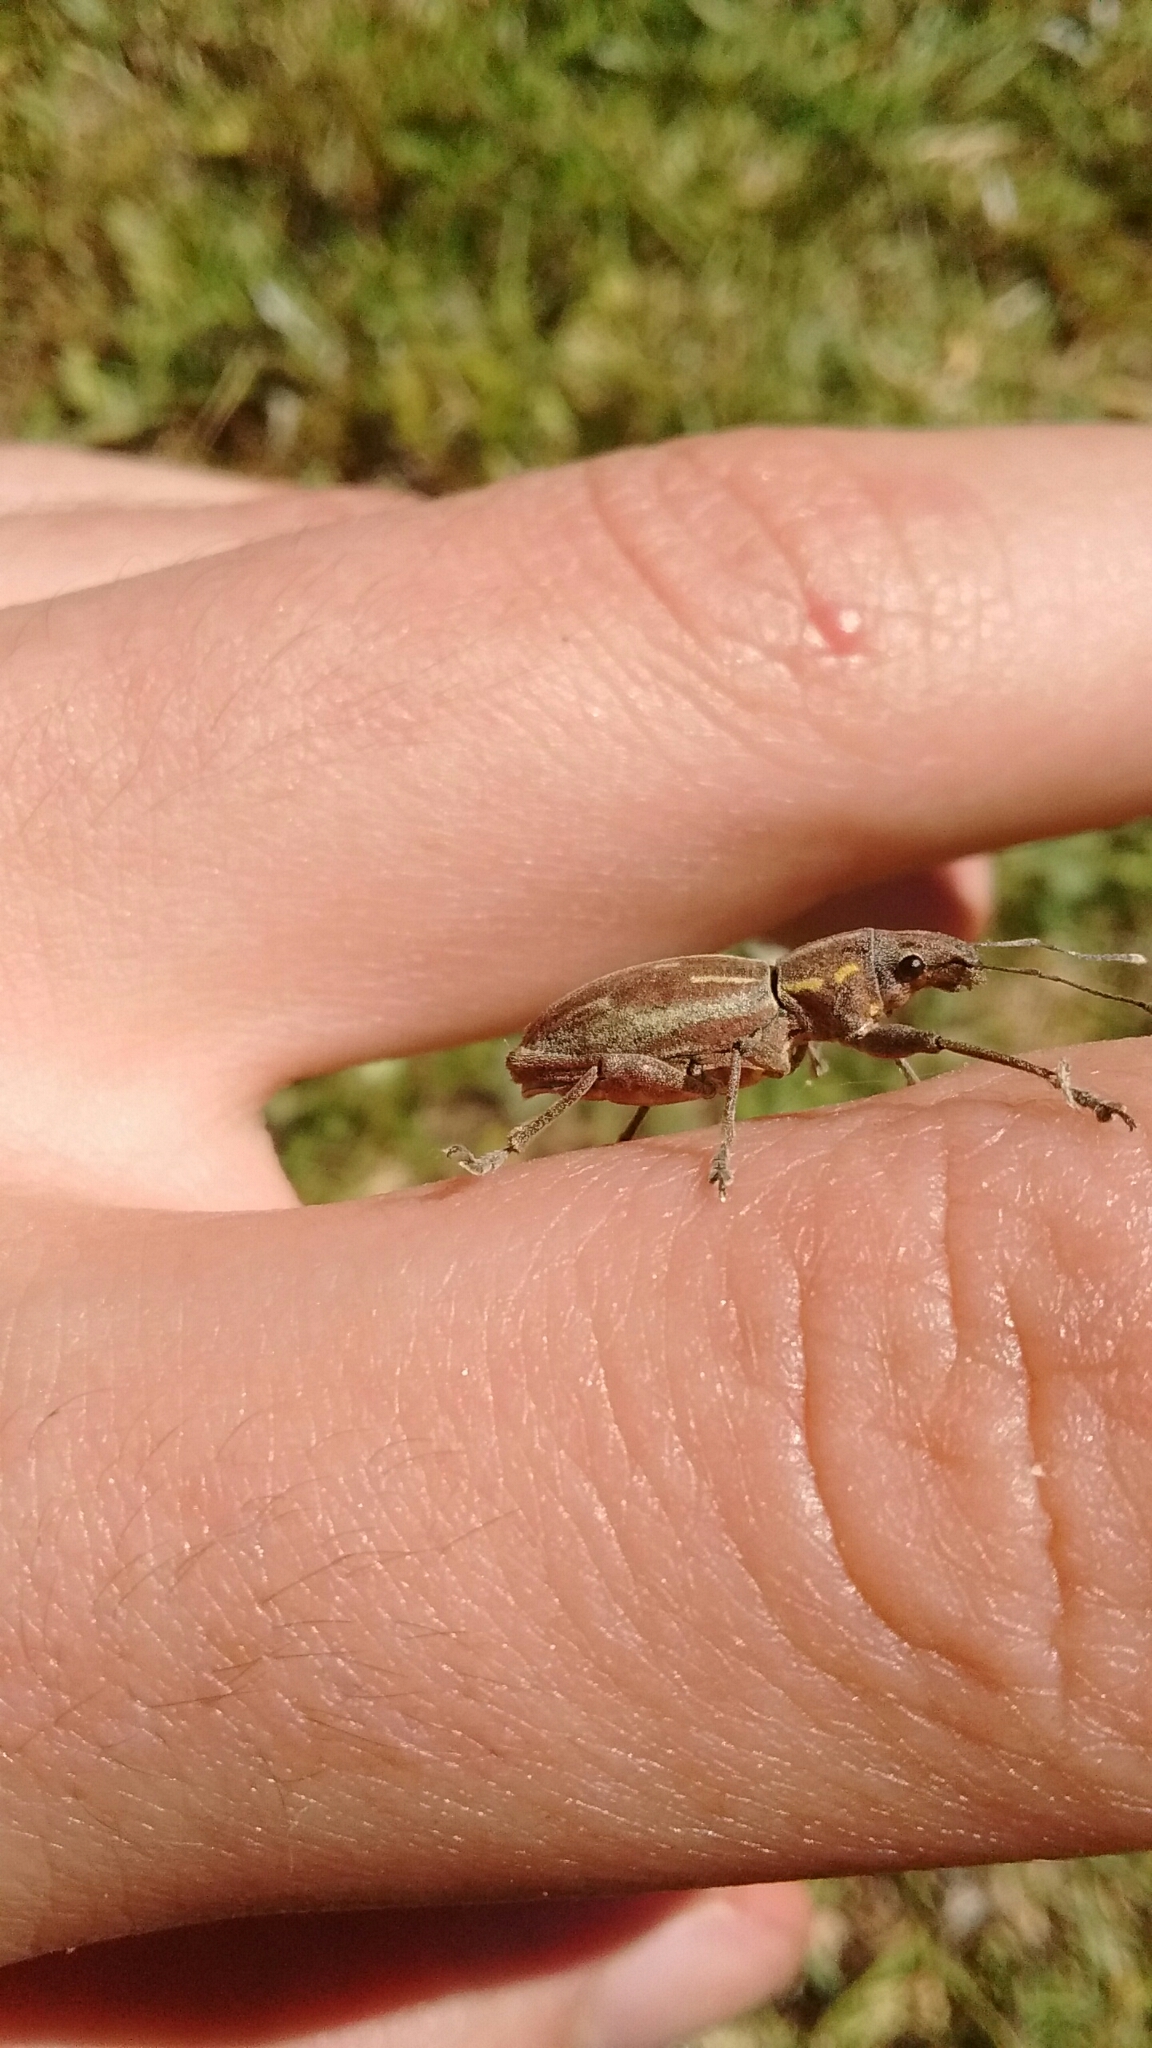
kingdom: Animalia
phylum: Arthropoda
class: Insecta
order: Coleoptera
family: Curculionidae
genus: Naupactus
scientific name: Naupactus xanthographus
